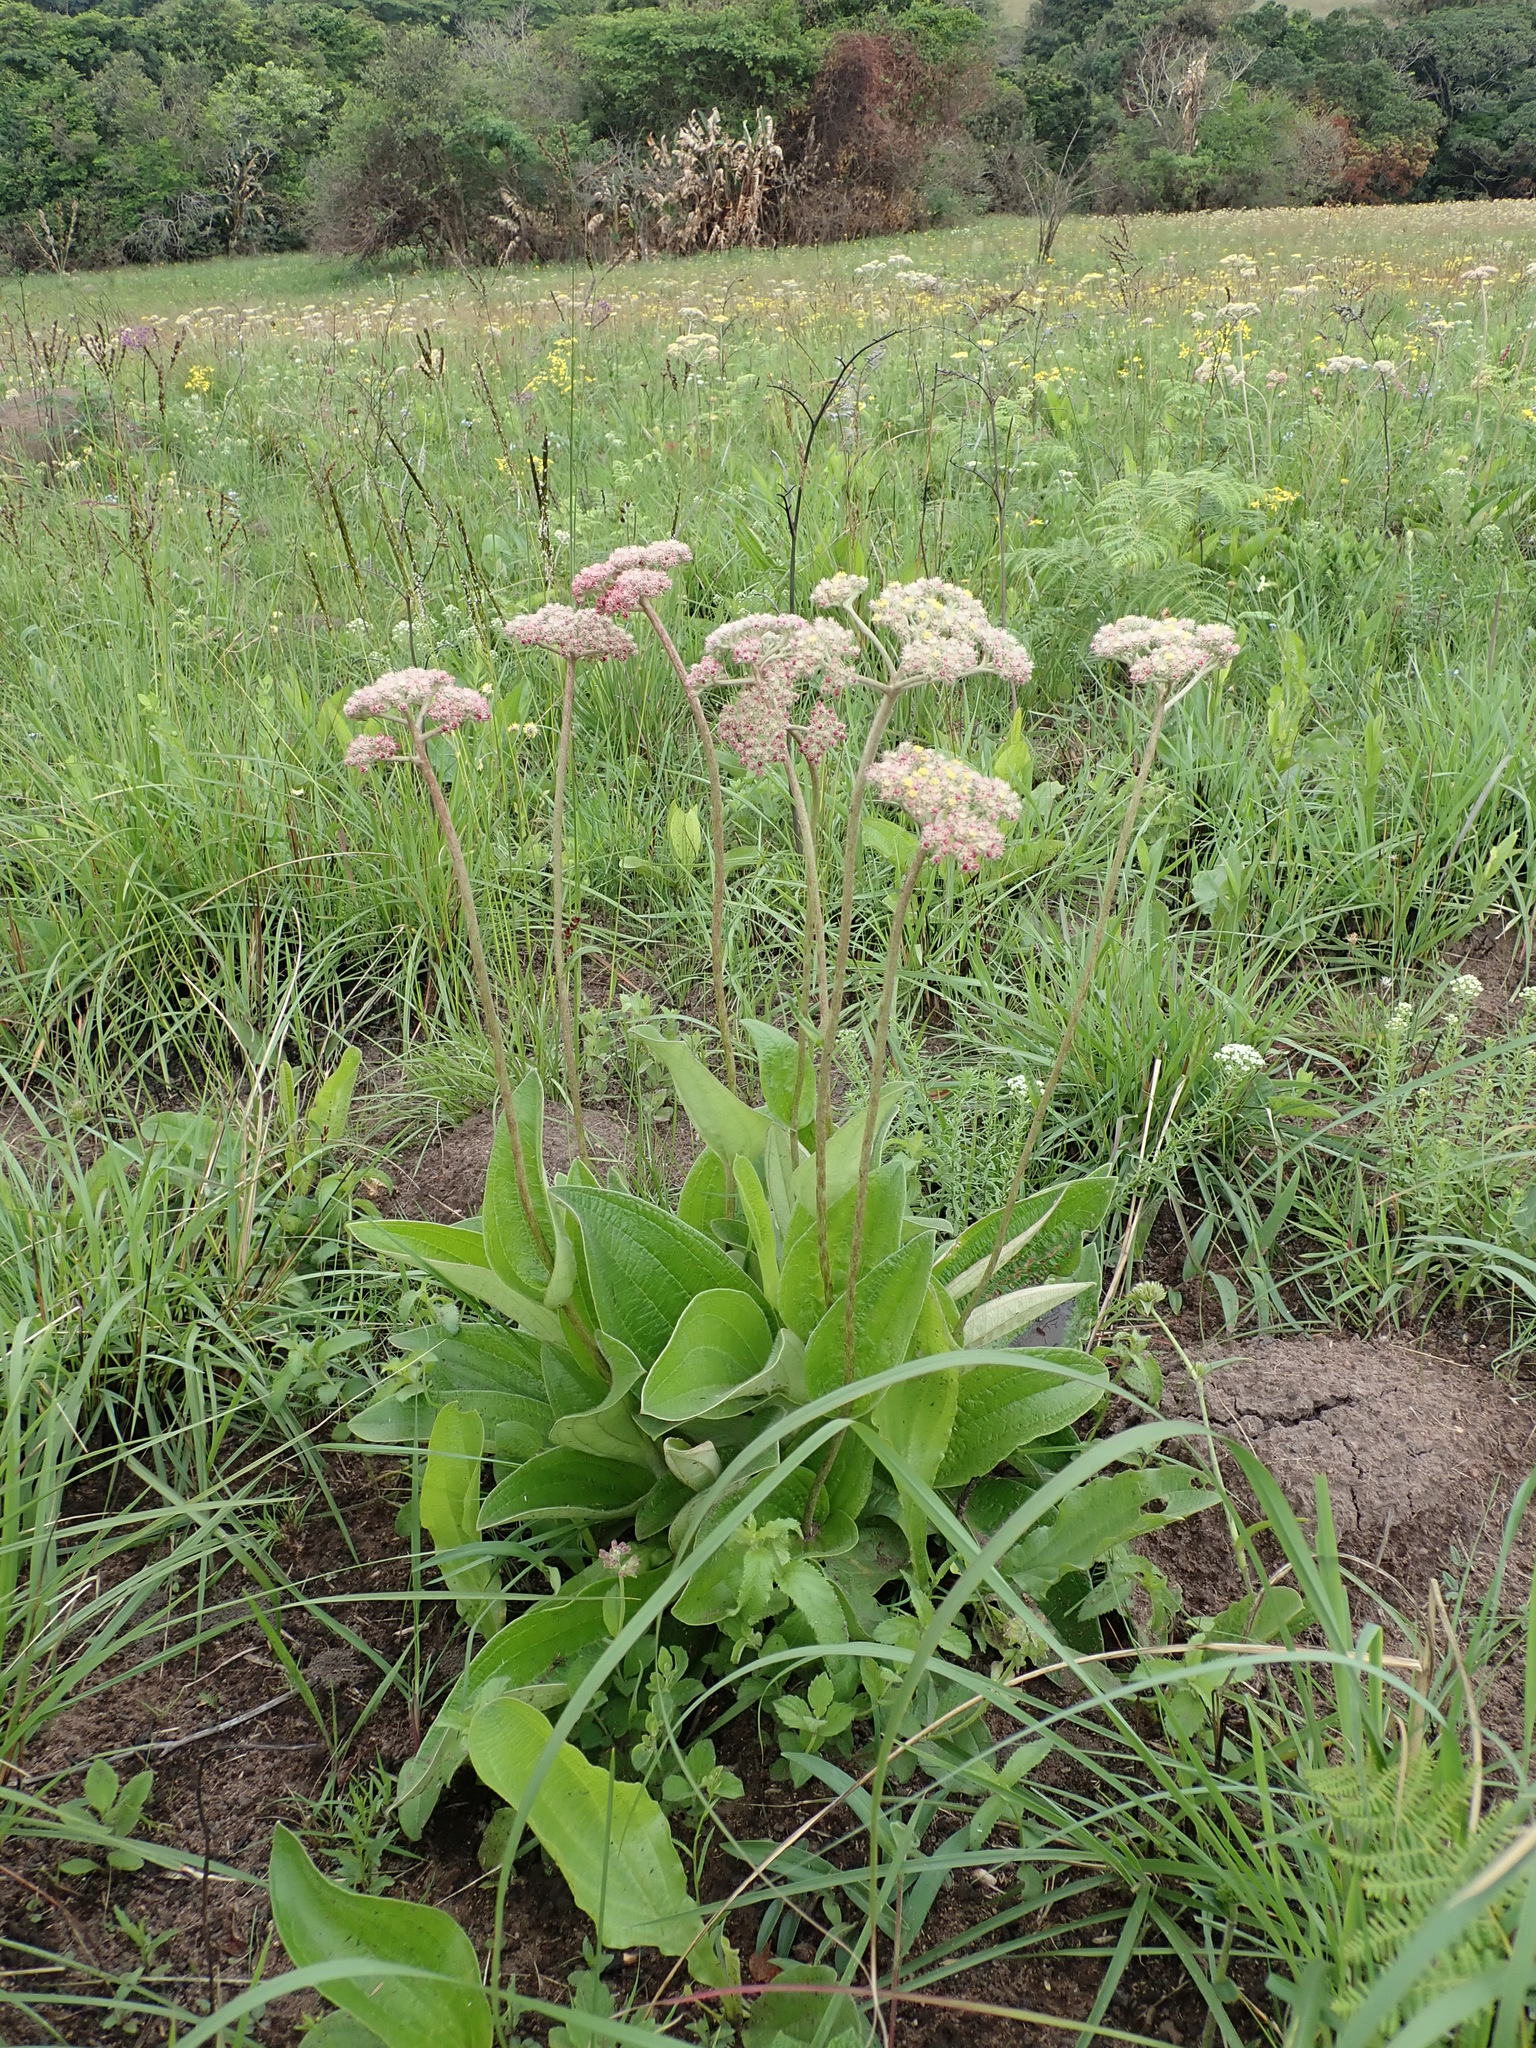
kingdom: Plantae
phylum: Tracheophyta
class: Magnoliopsida
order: Asterales
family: Asteraceae
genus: Helichrysum
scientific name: Helichrysum griseum
